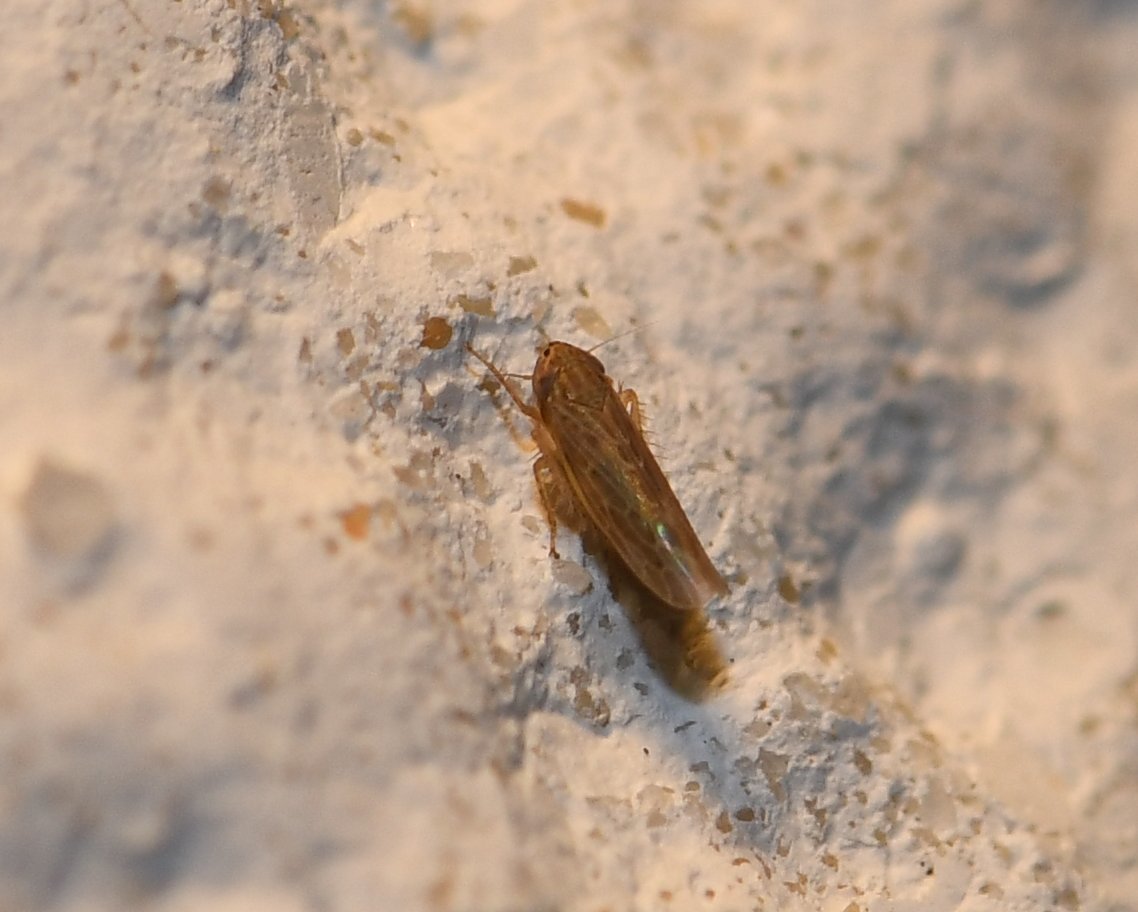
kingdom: Animalia
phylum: Arthropoda
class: Insecta
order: Hemiptera
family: Cicadellidae
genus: Graminella
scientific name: Graminella sonora
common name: Lesser lawn leafhopper
